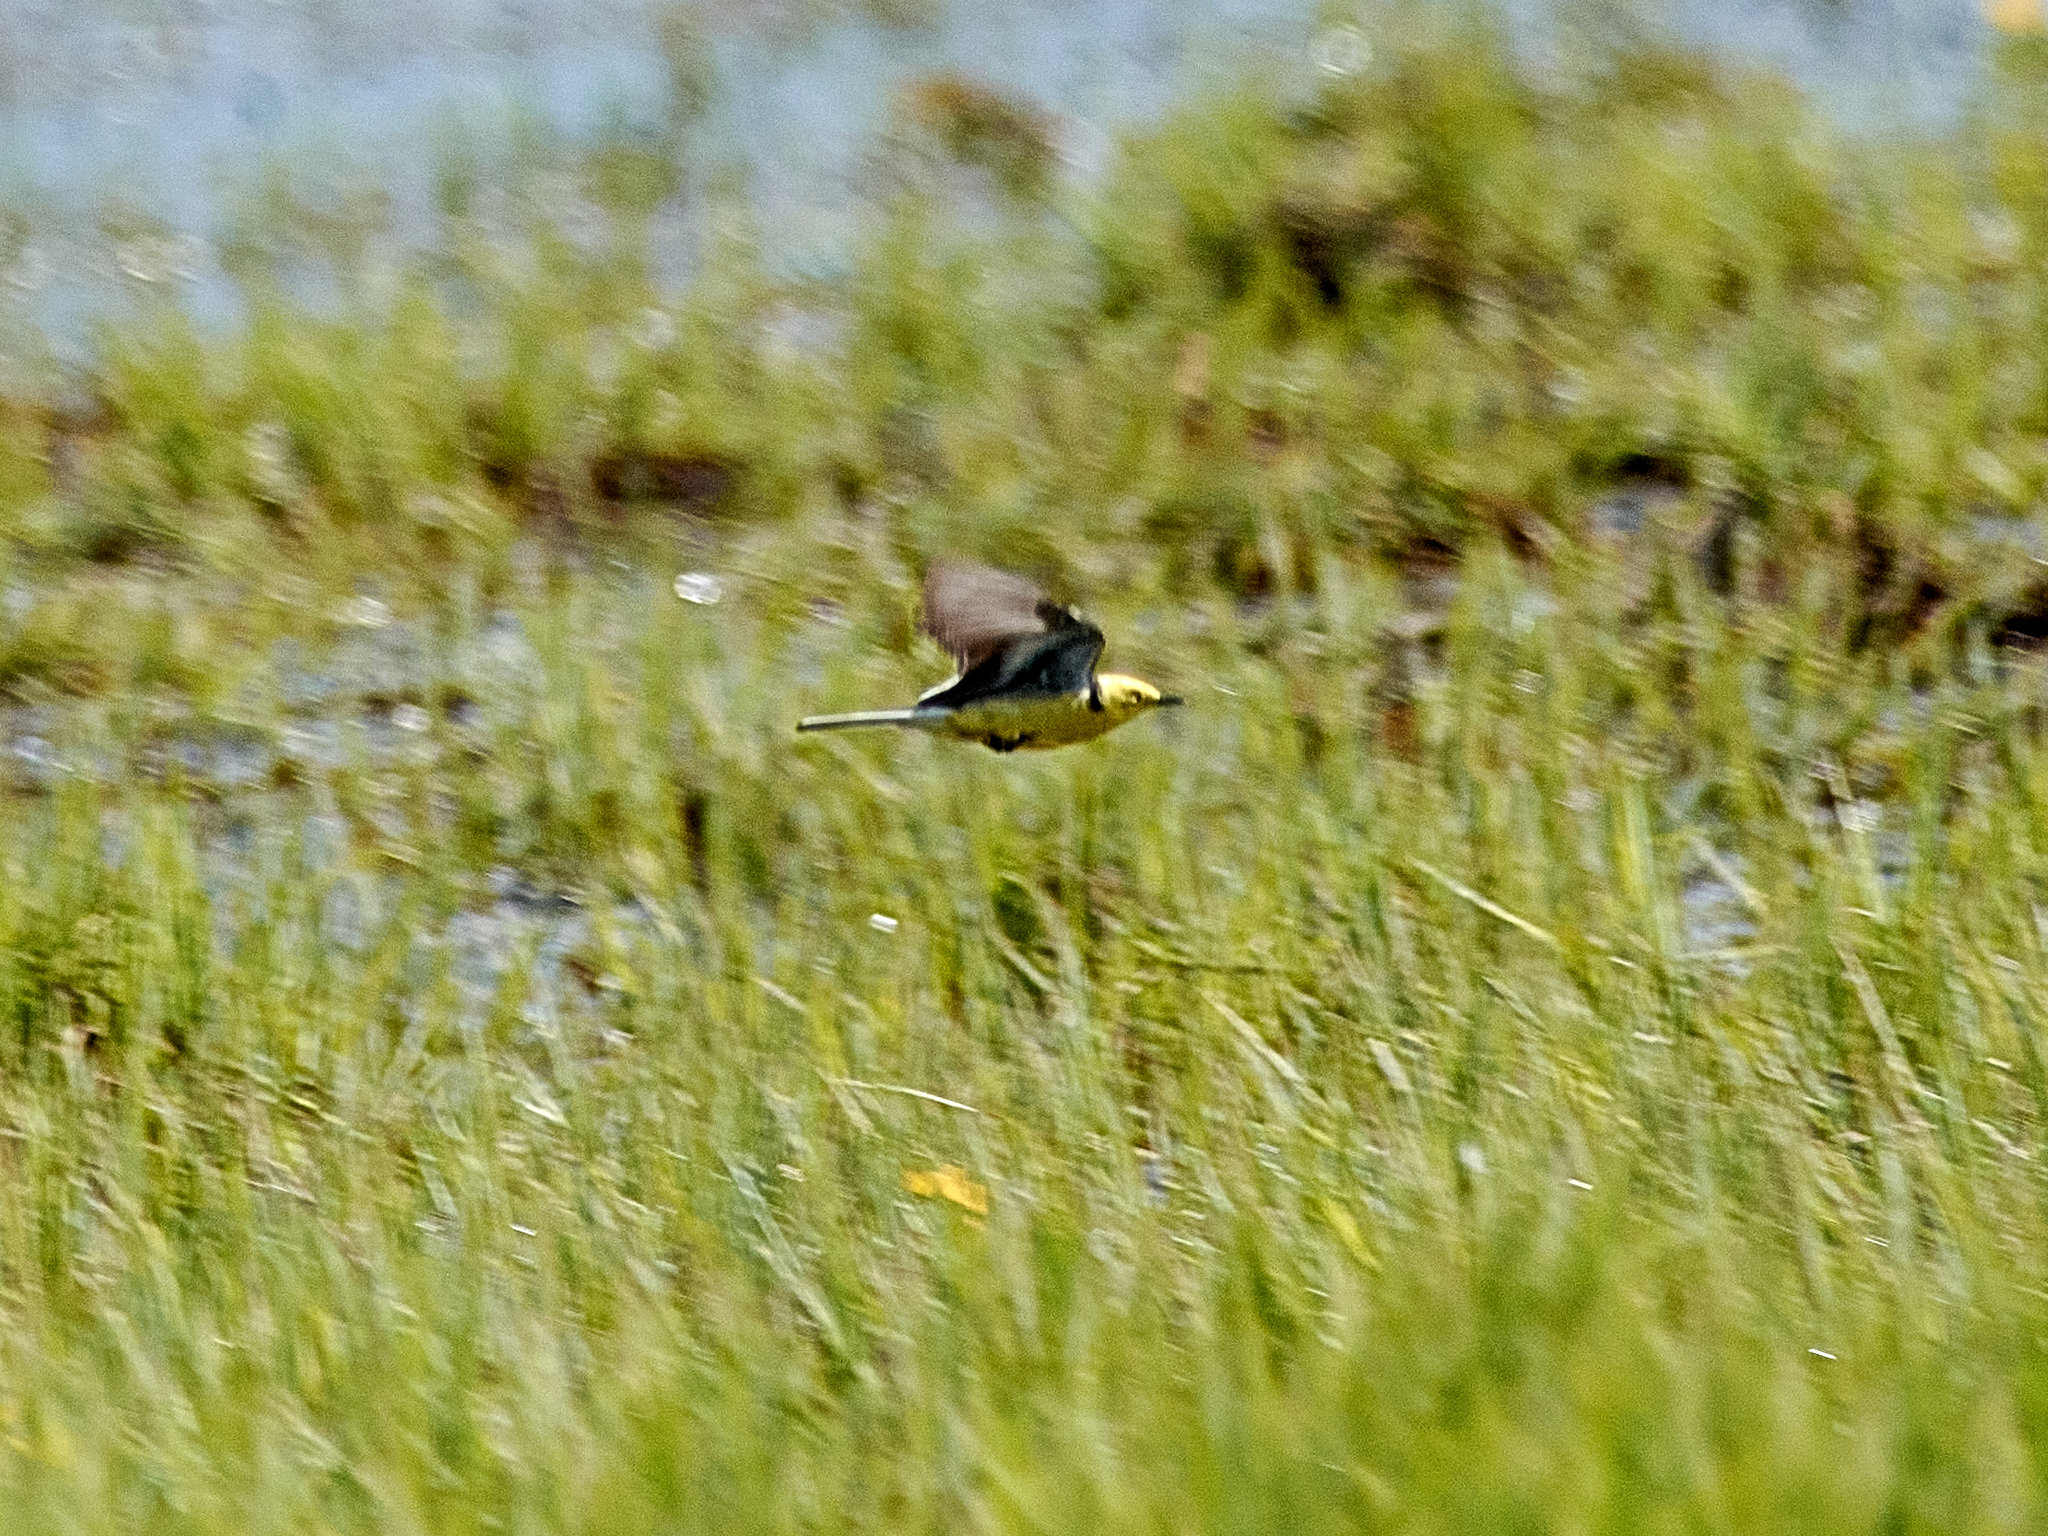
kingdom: Animalia
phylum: Chordata
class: Aves
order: Passeriformes
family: Motacillidae
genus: Motacilla
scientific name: Motacilla citreola
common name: Citrine wagtail
